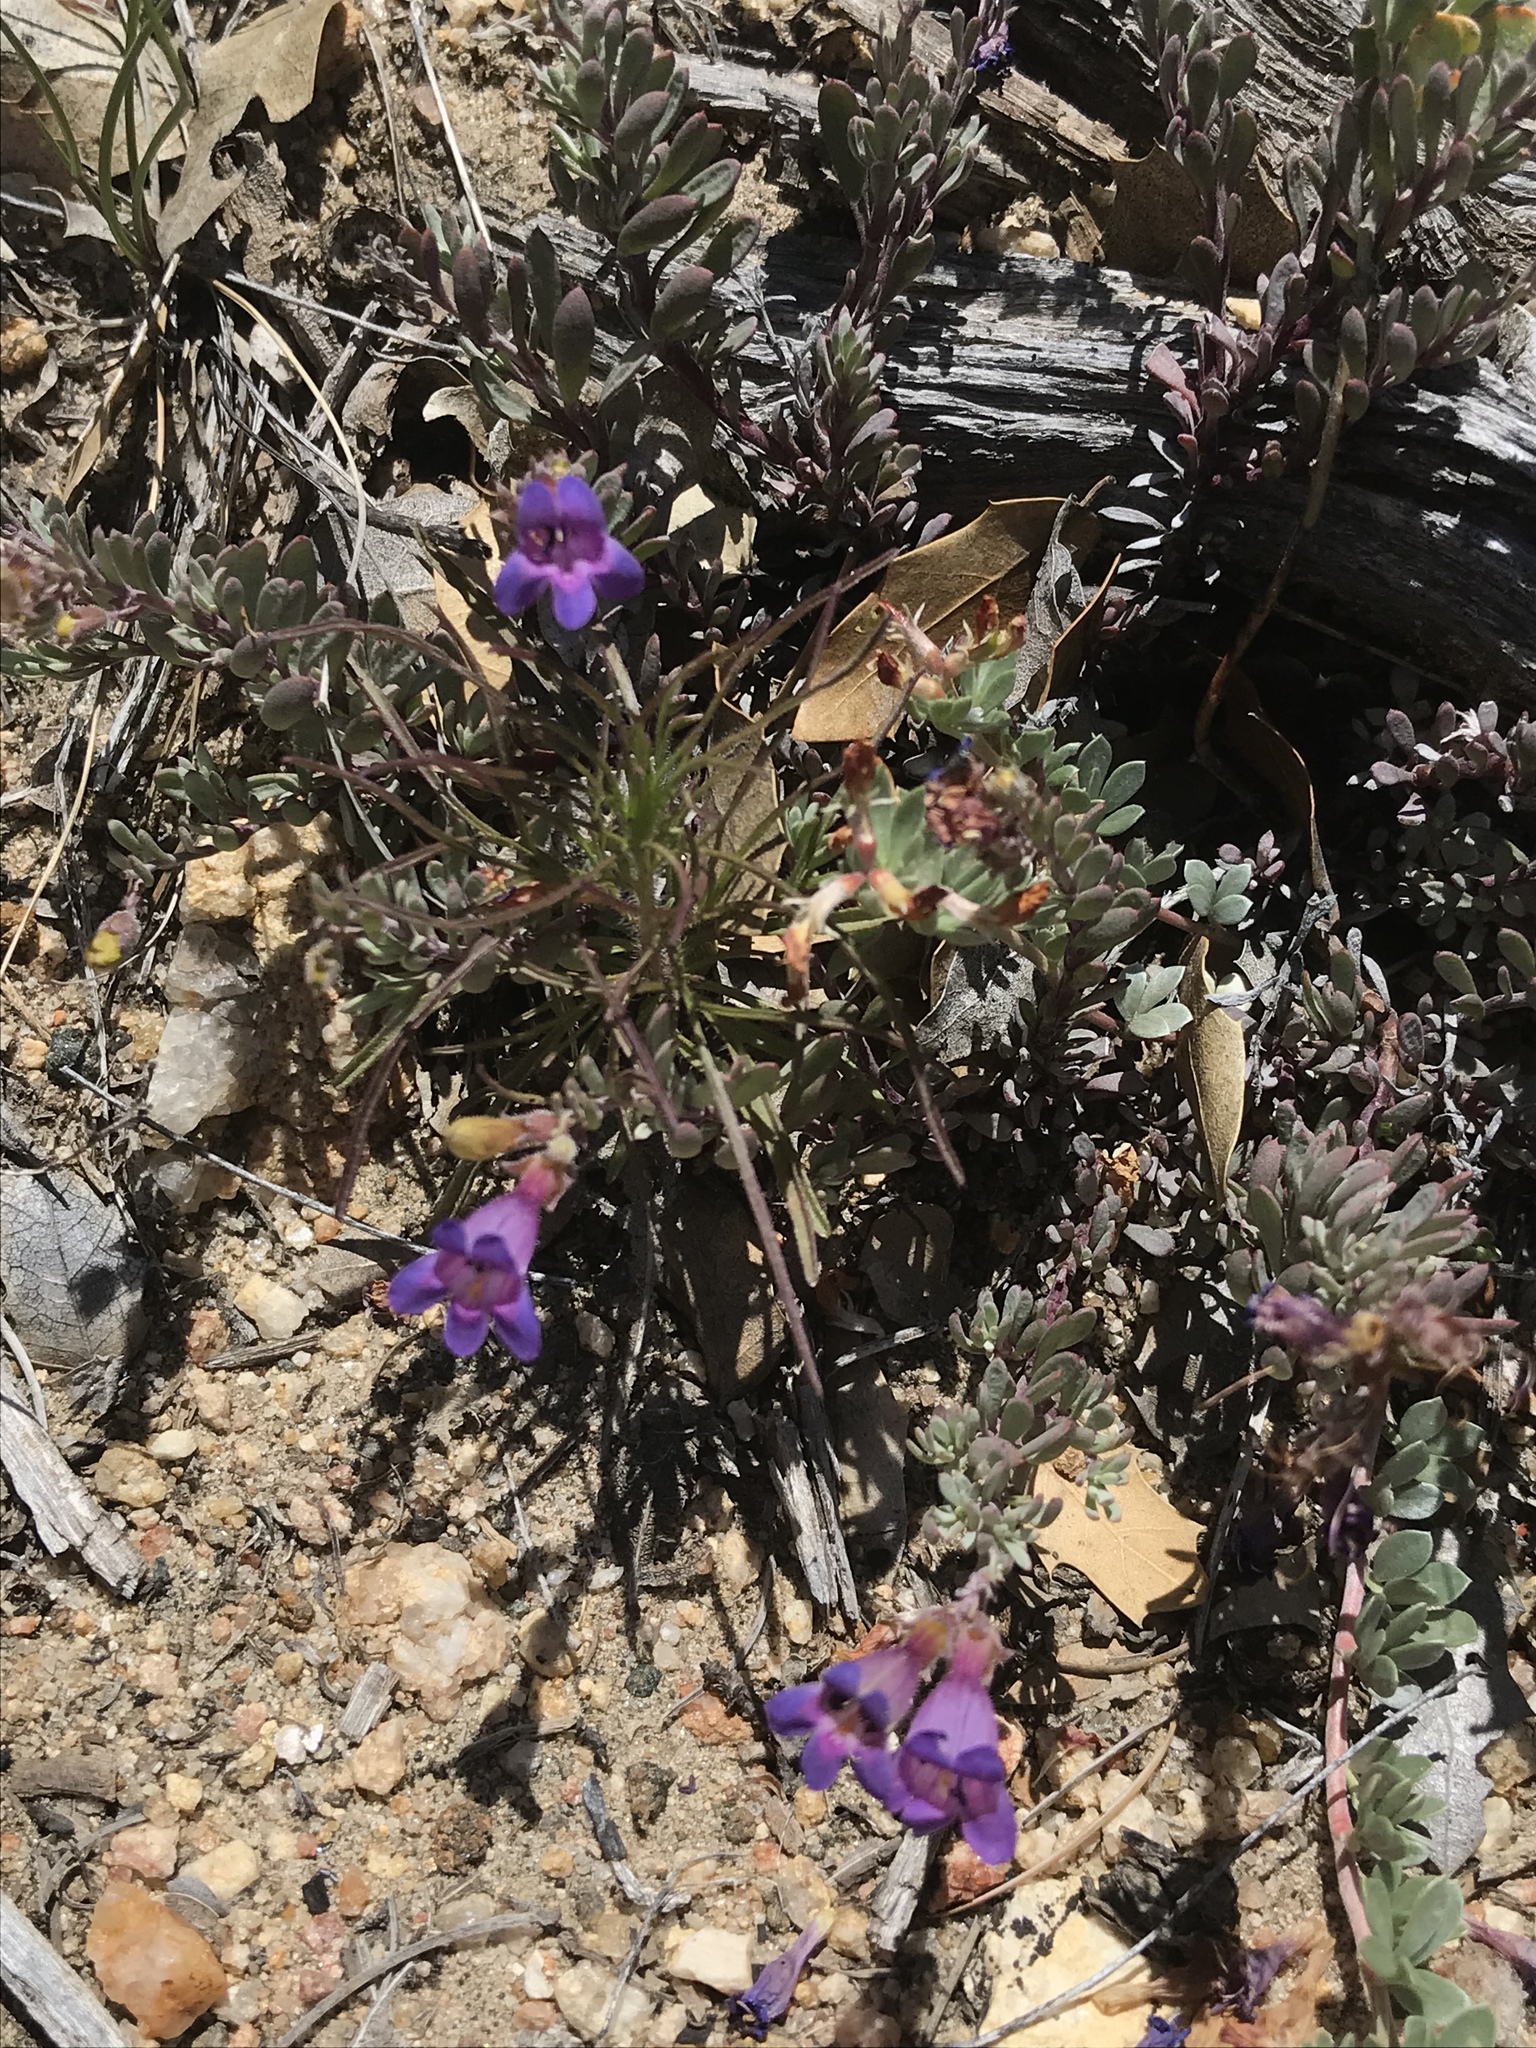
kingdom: Plantae
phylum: Tracheophyta
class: Magnoliopsida
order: Lamiales
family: Plantaginaceae
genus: Penstemon
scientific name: Penstemon californicus
